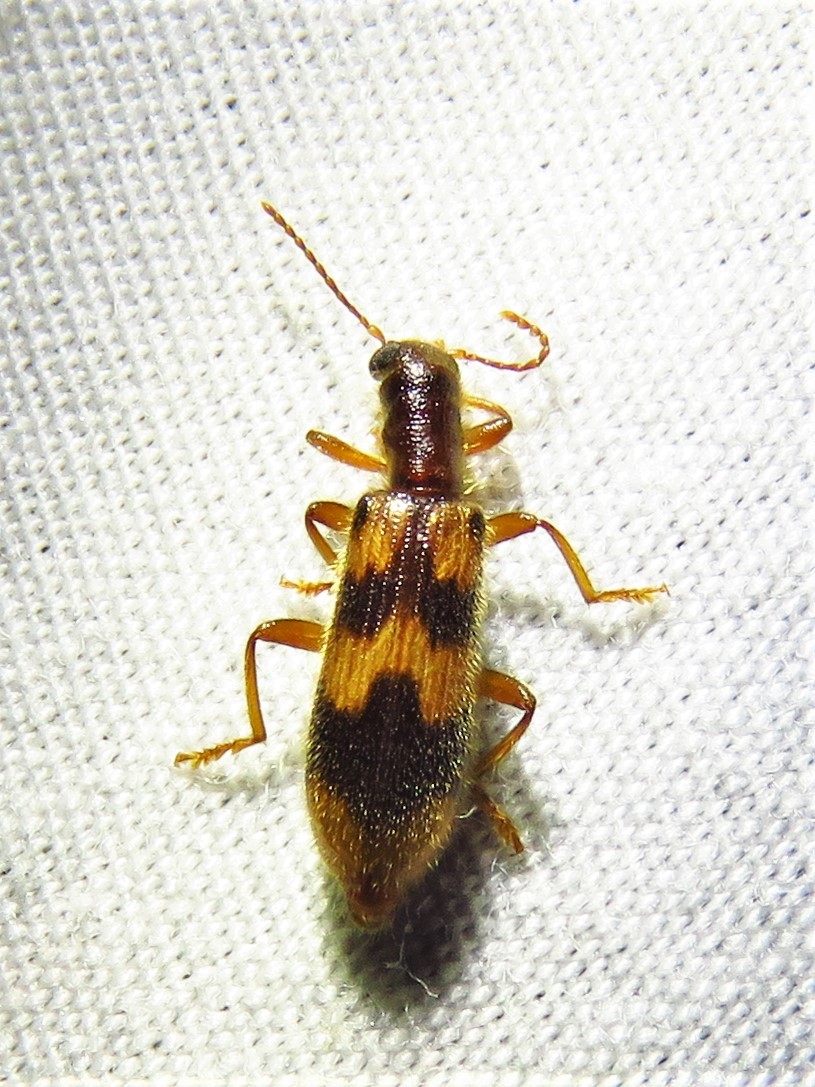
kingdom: Animalia
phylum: Arthropoda
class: Insecta
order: Coleoptera
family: Cleridae
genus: Cymatodera
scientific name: Cymatodera sirpata
